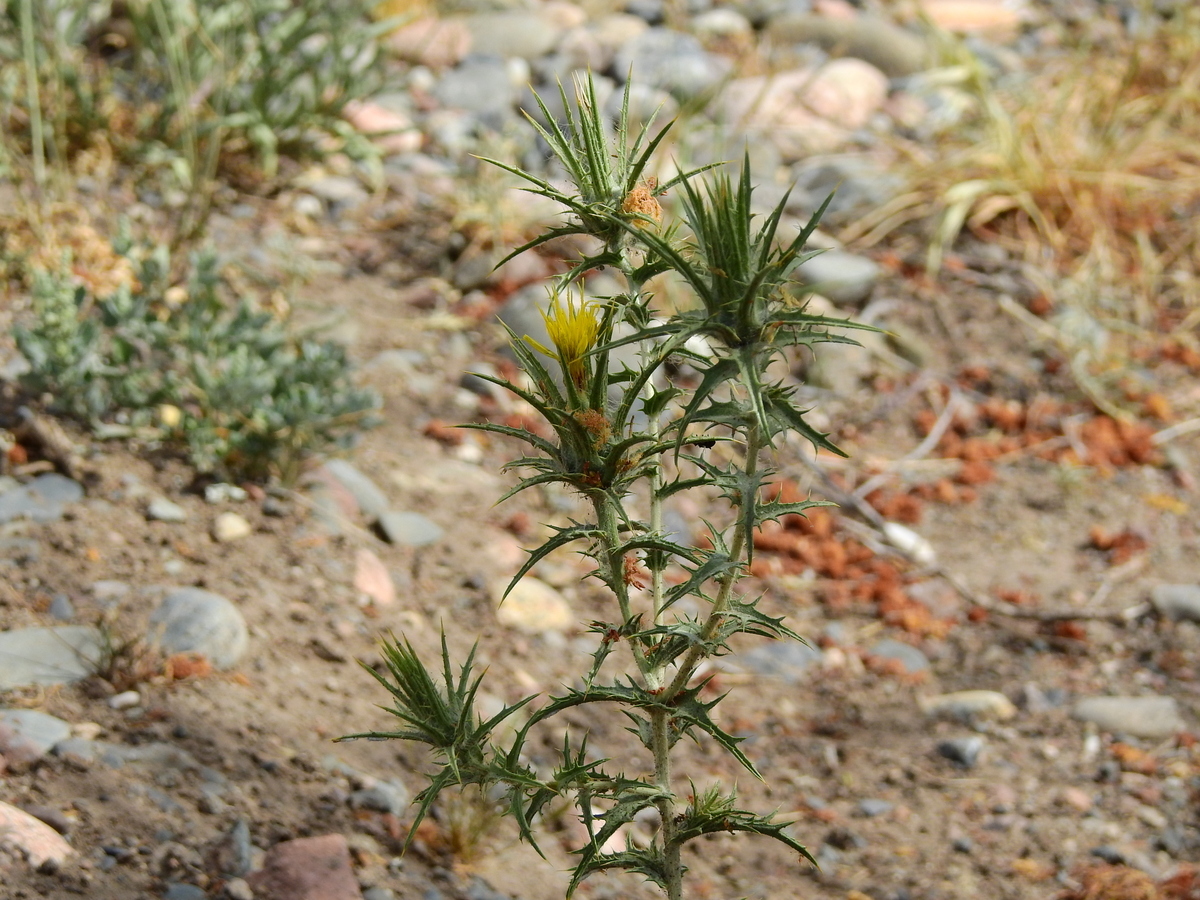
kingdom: Plantae
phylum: Tracheophyta
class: Magnoliopsida
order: Asterales
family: Asteraceae
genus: Carthamus
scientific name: Carthamus lanatus
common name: Downy safflower
